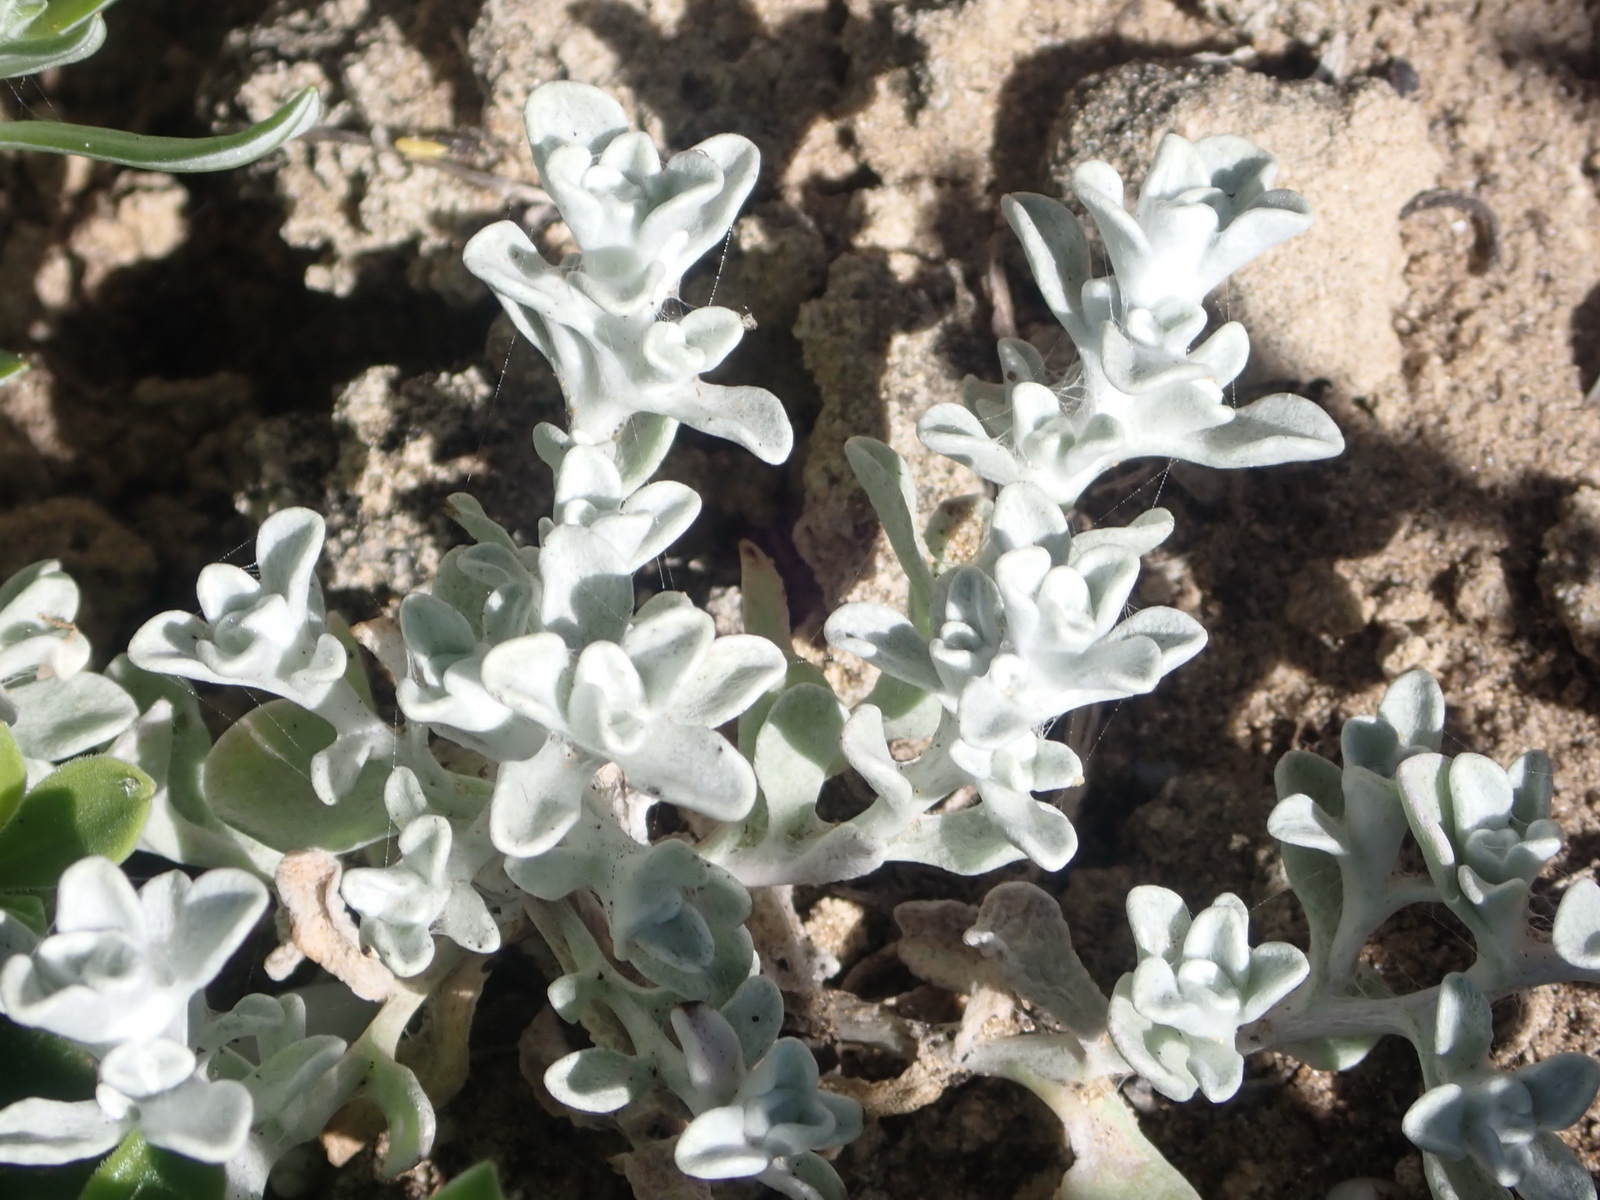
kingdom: Plantae
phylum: Tracheophyta
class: Magnoliopsida
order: Asterales
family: Asteraceae
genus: Helichrysum
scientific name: Helichrysum litorale
